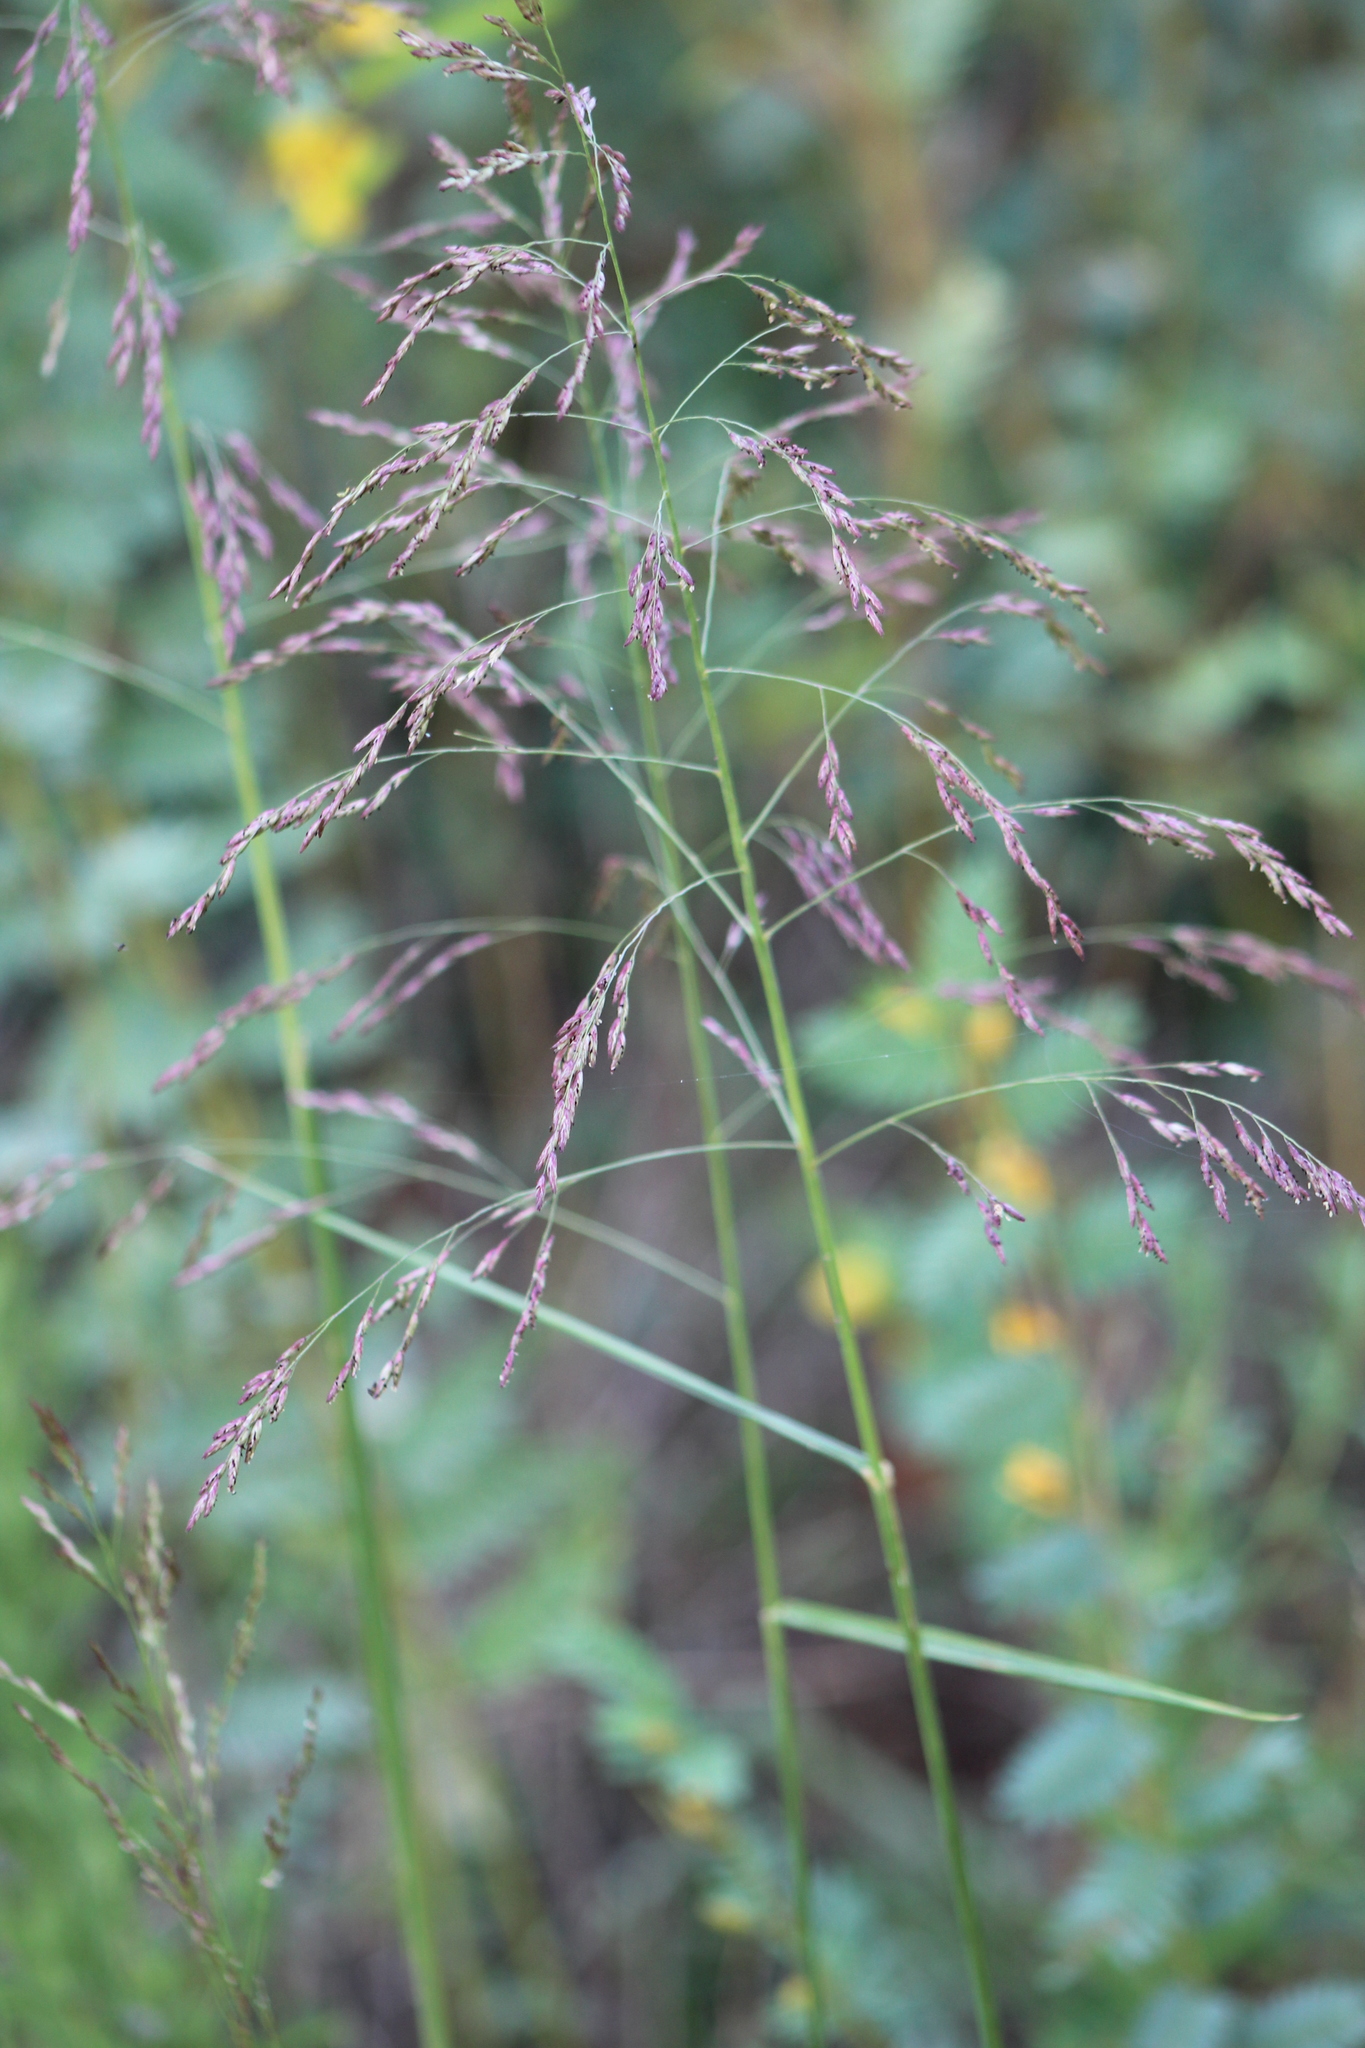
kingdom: Plantae
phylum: Tracheophyta
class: Liliopsida
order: Poales
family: Poaceae
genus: Tridens
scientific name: Tridens flavus
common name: Purpletop
